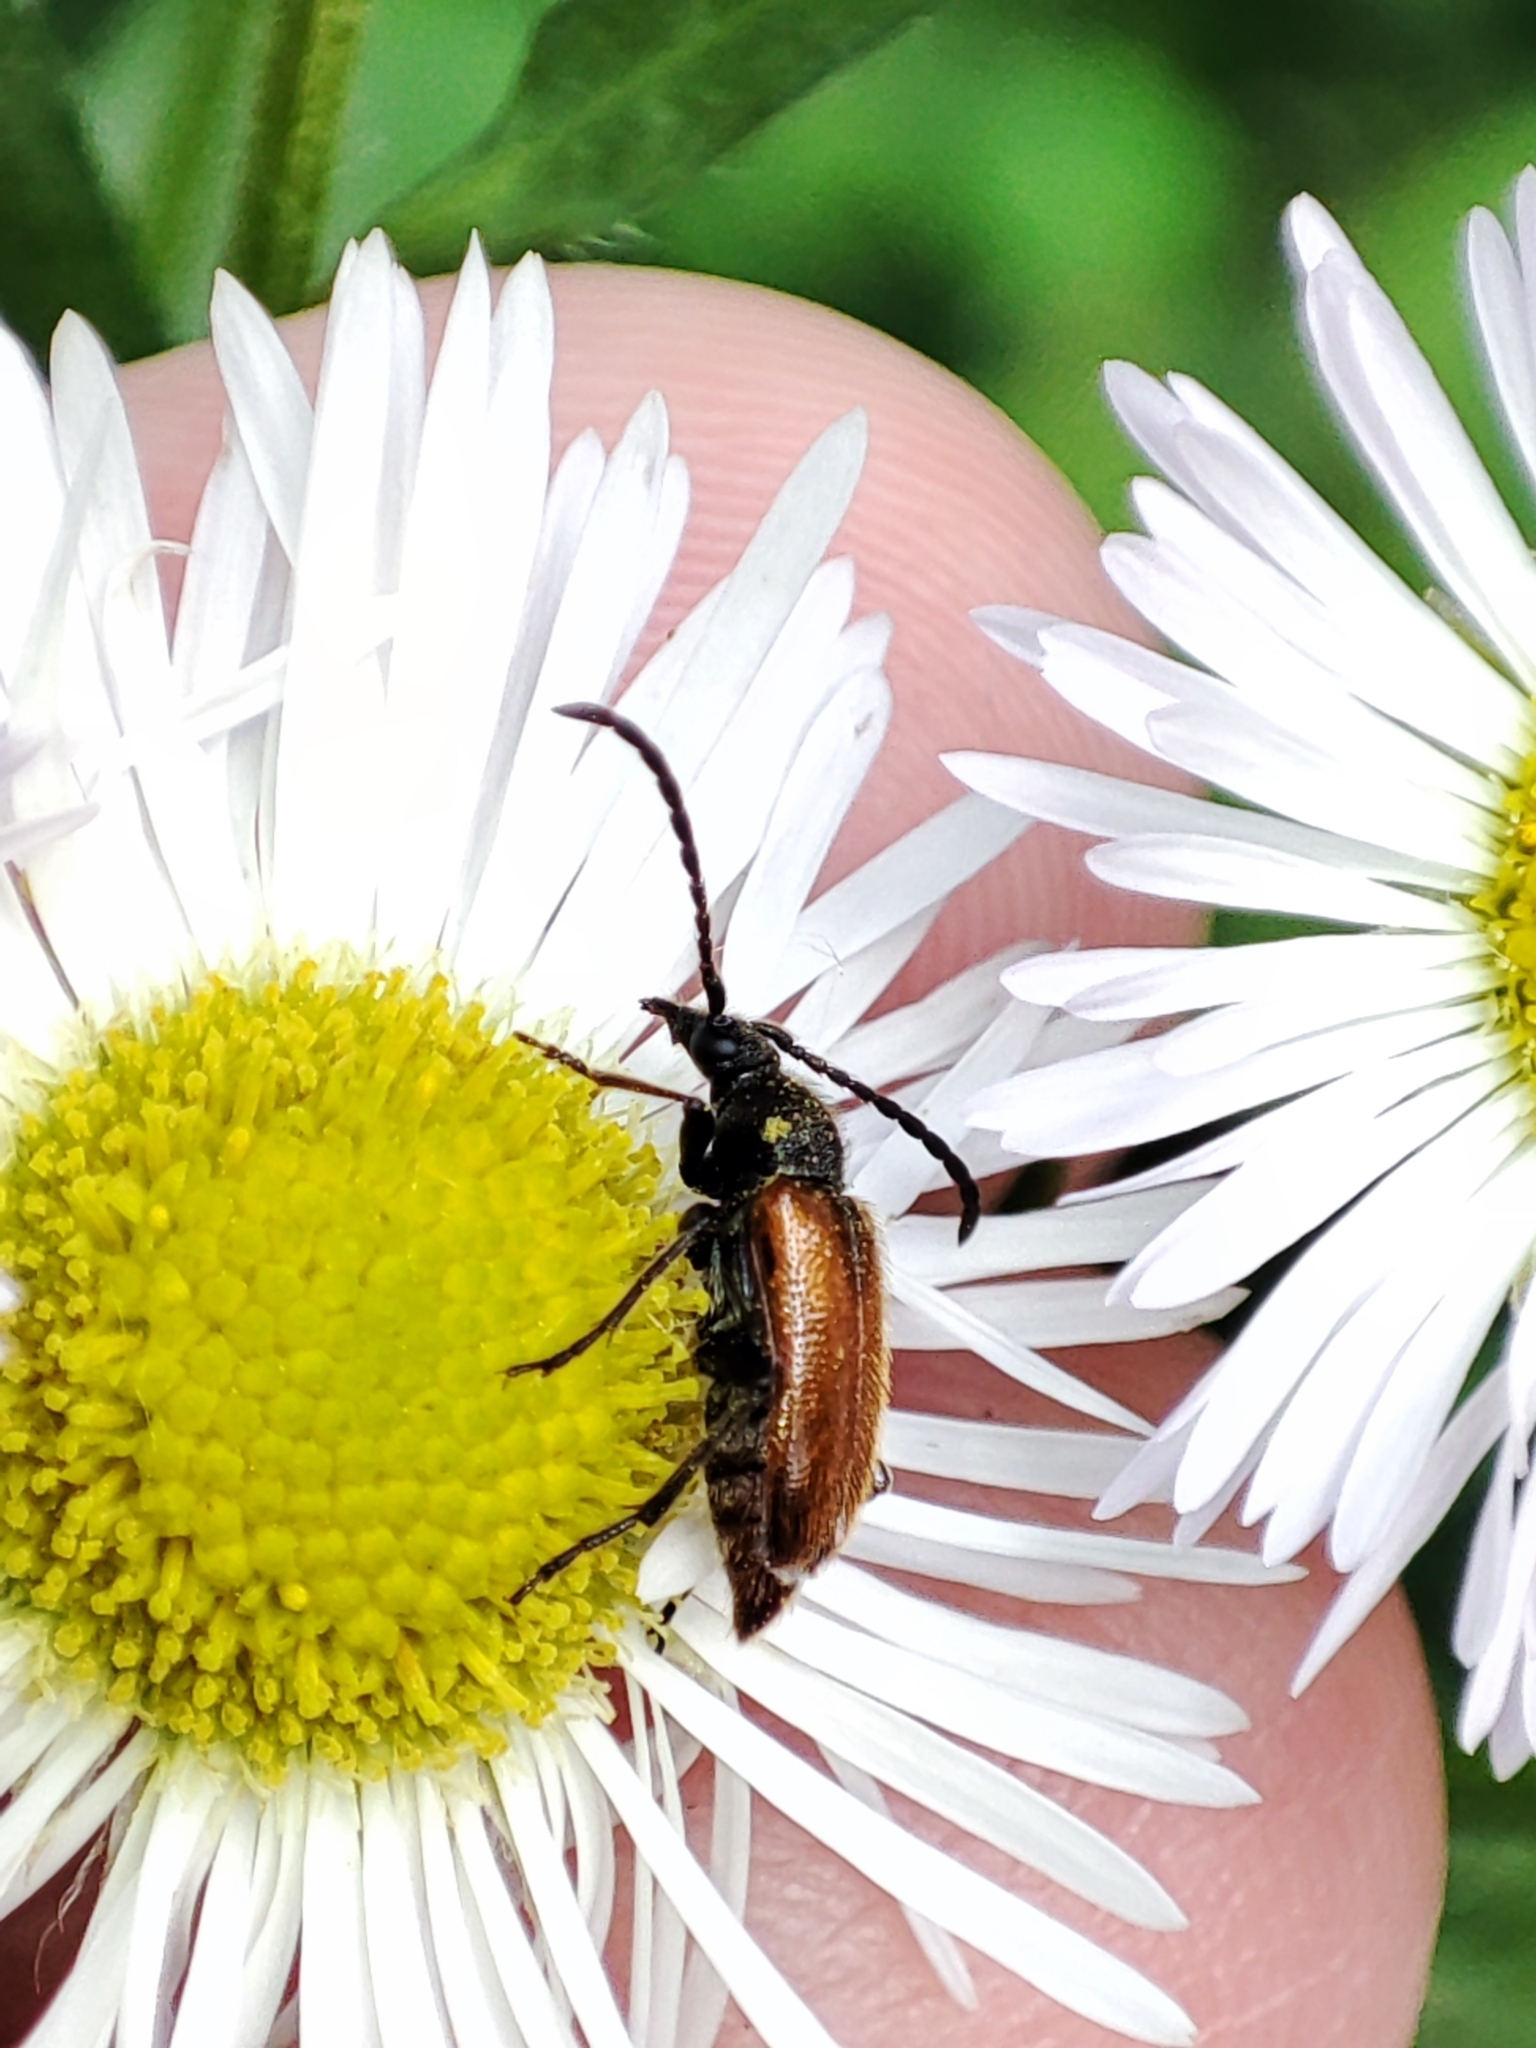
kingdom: Animalia
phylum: Arthropoda
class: Insecta
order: Coleoptera
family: Cerambycidae
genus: Pseudovadonia
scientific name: Pseudovadonia livida
